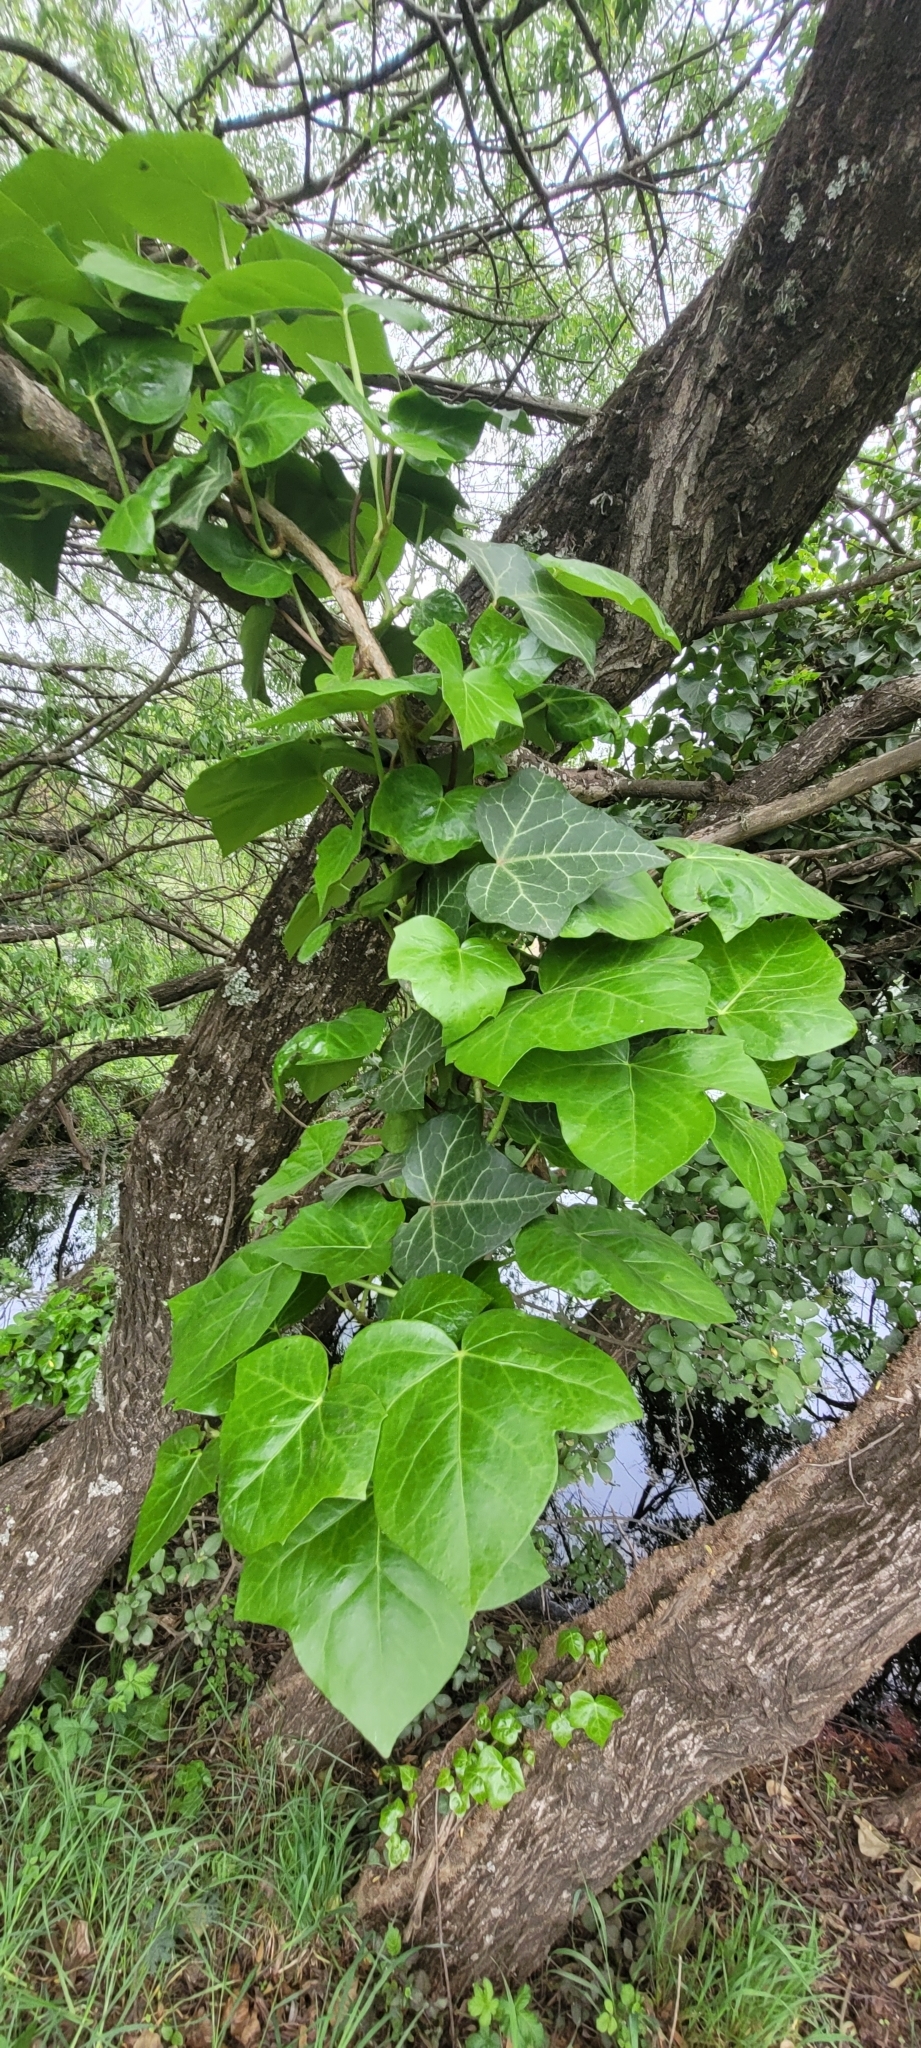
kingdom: Plantae
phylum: Tracheophyta
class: Magnoliopsida
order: Apiales
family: Araliaceae
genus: Hedera
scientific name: Hedera helix
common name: Ivy
